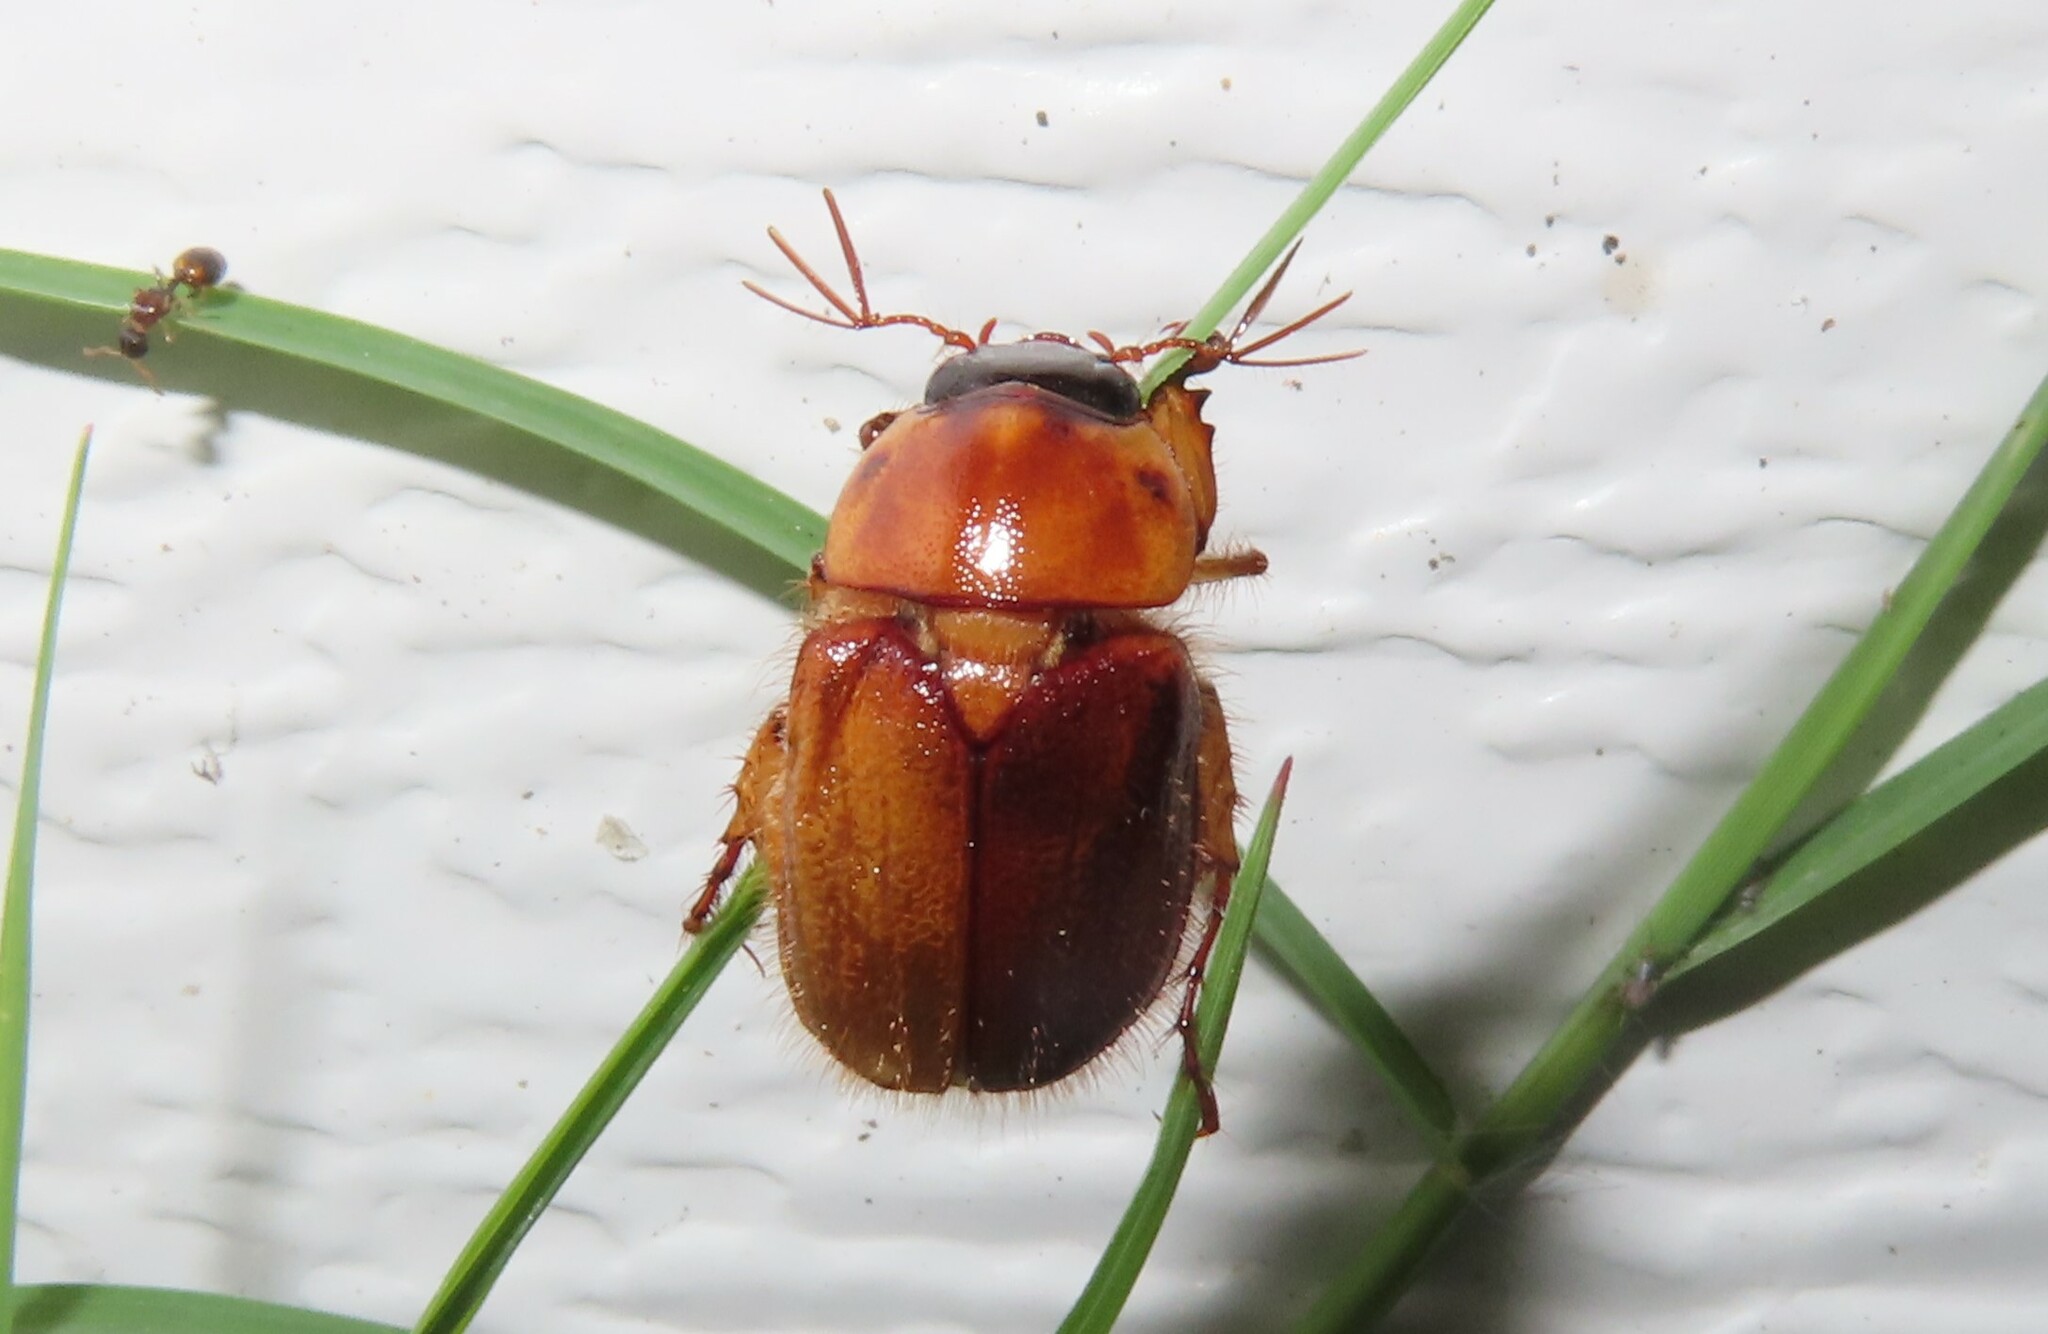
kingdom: Animalia
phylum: Arthropoda
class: Insecta
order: Coleoptera
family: Scarabaeidae
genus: Cyclocephala
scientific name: Cyclocephala lurida
